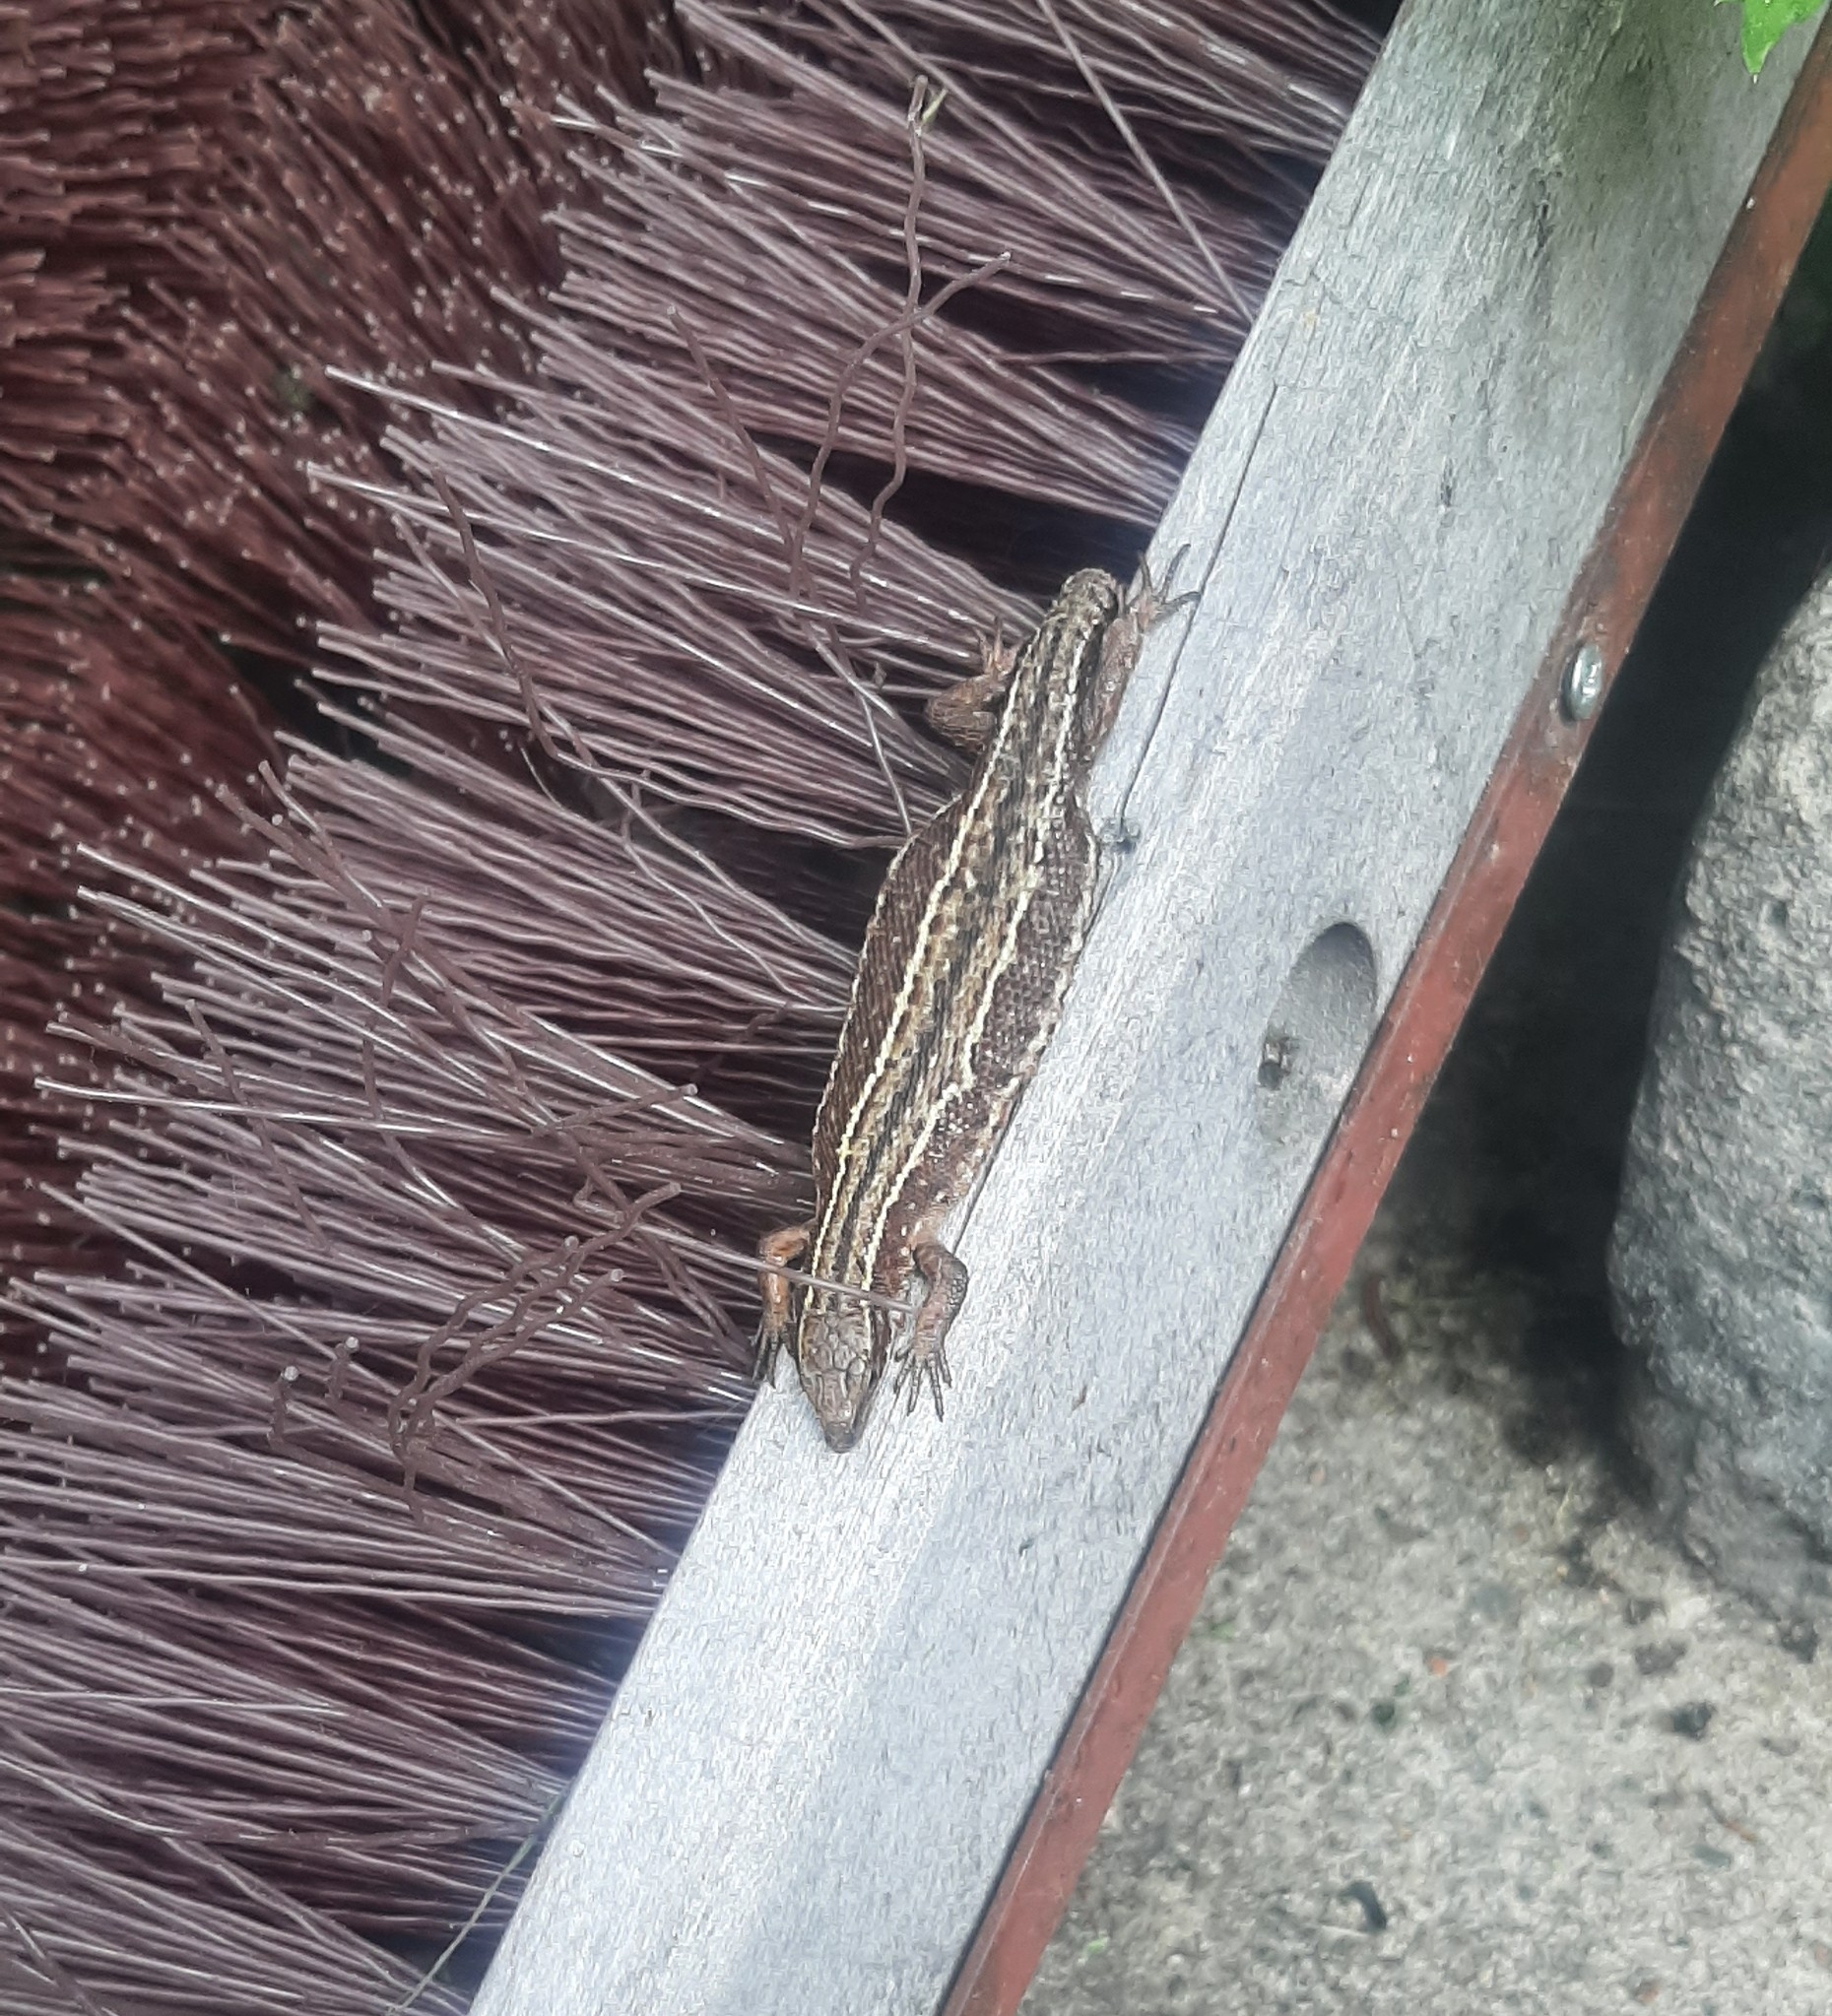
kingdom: Animalia
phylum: Chordata
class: Squamata
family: Lacertidae
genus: Zootoca
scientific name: Zootoca vivipara
